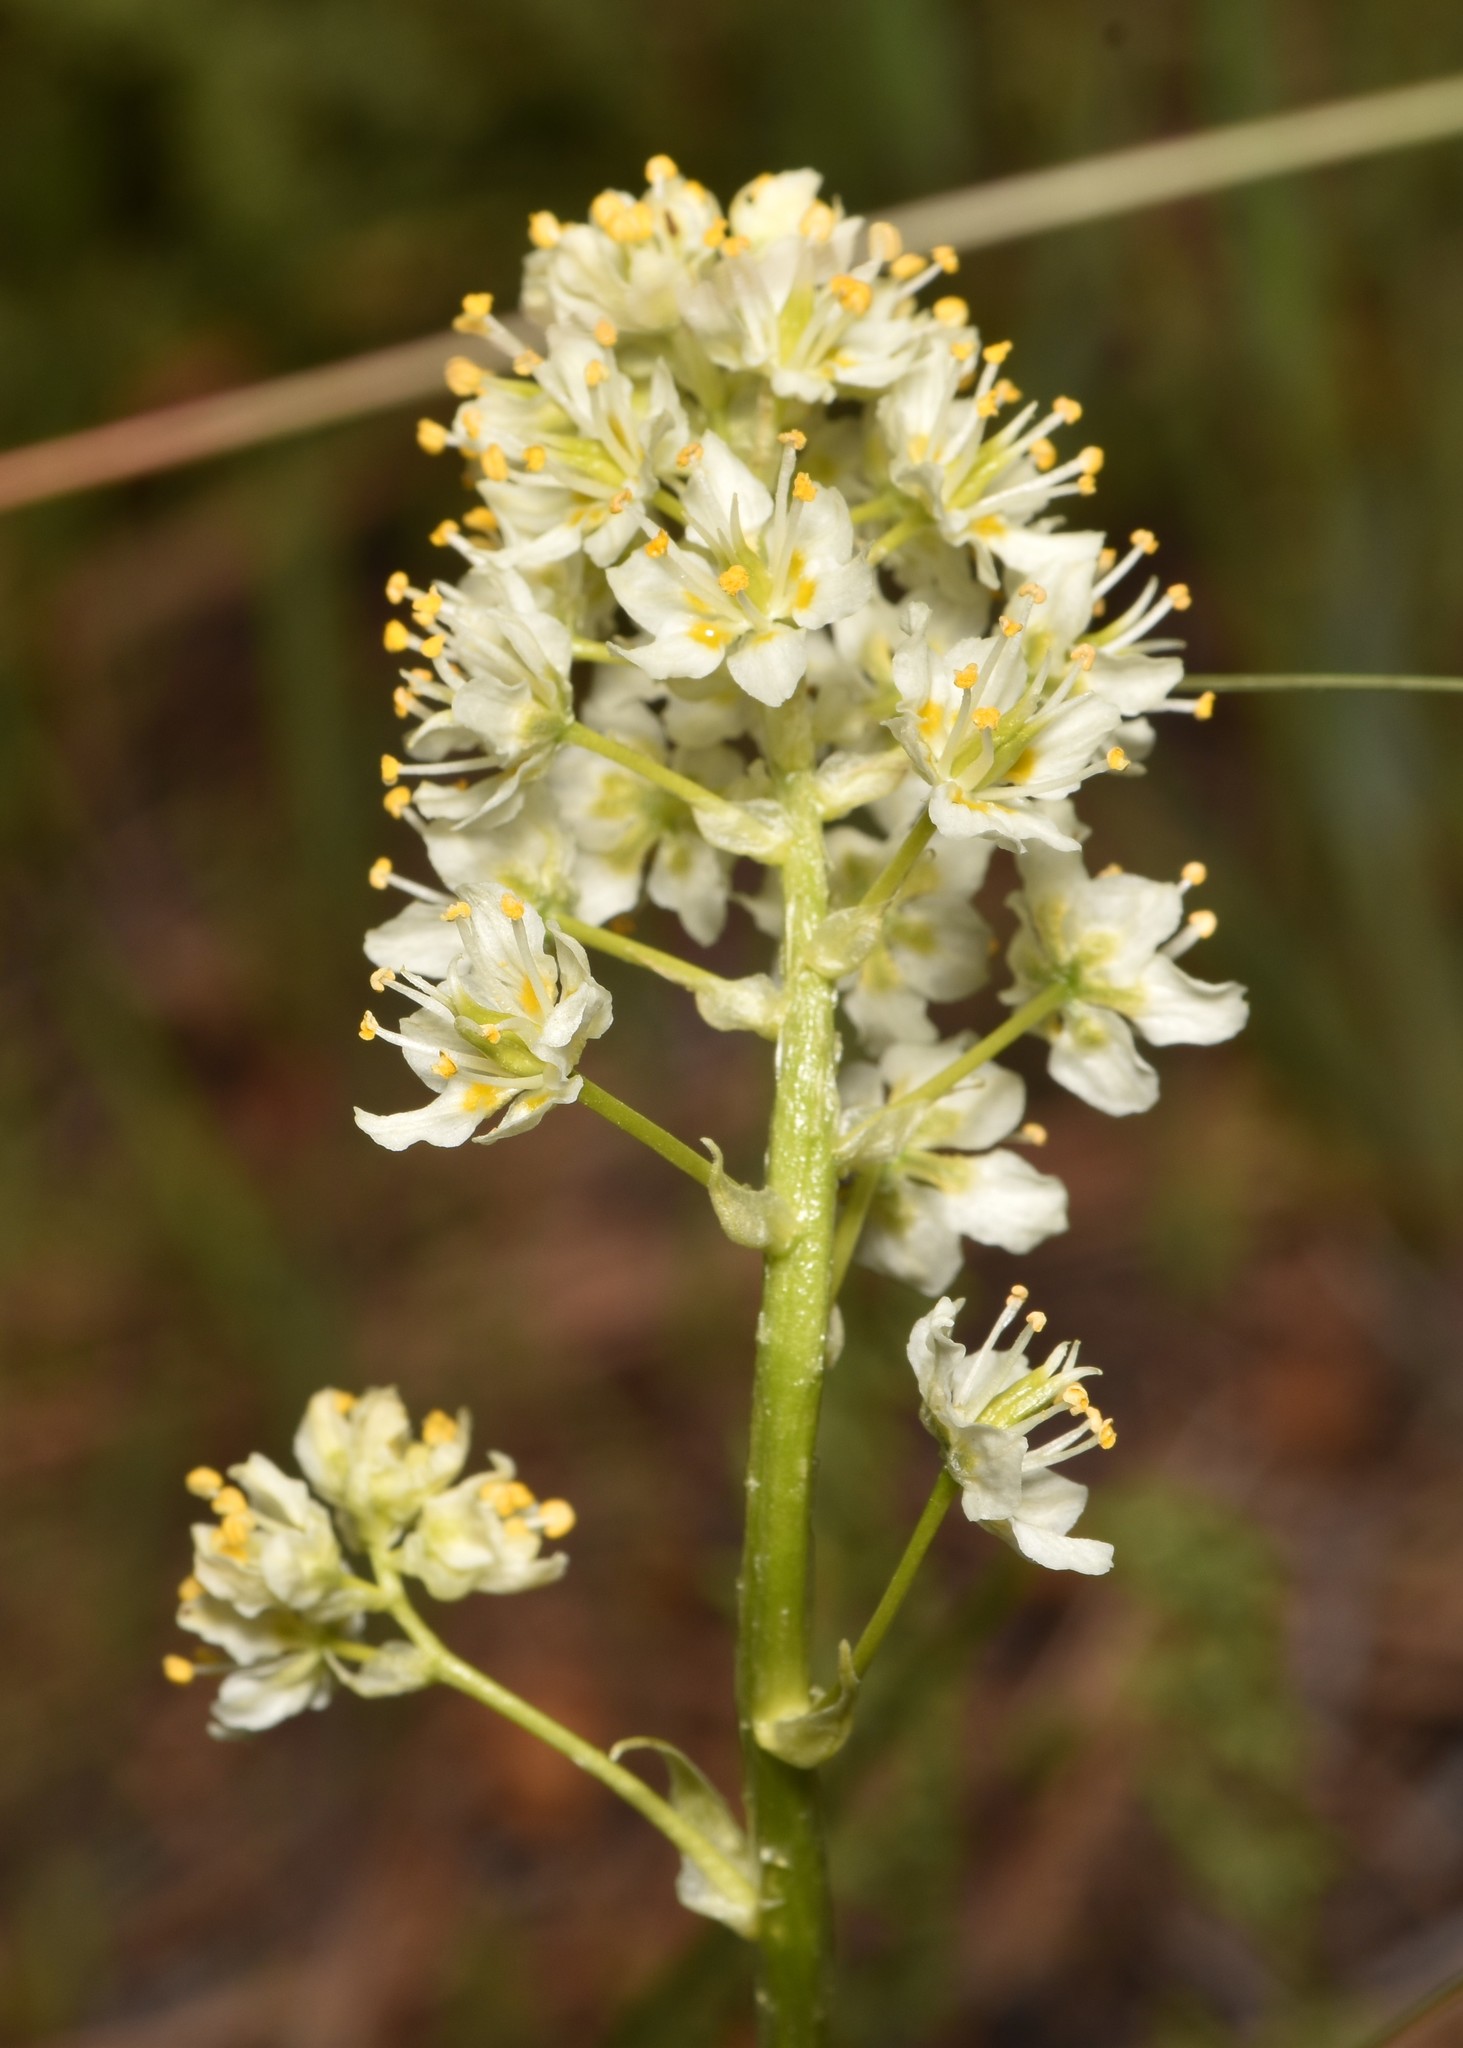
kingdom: Plantae
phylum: Tracheophyta
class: Liliopsida
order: Liliales
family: Melanthiaceae
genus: Toxicoscordion
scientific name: Toxicoscordion venenosum
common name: Meadow death camas
